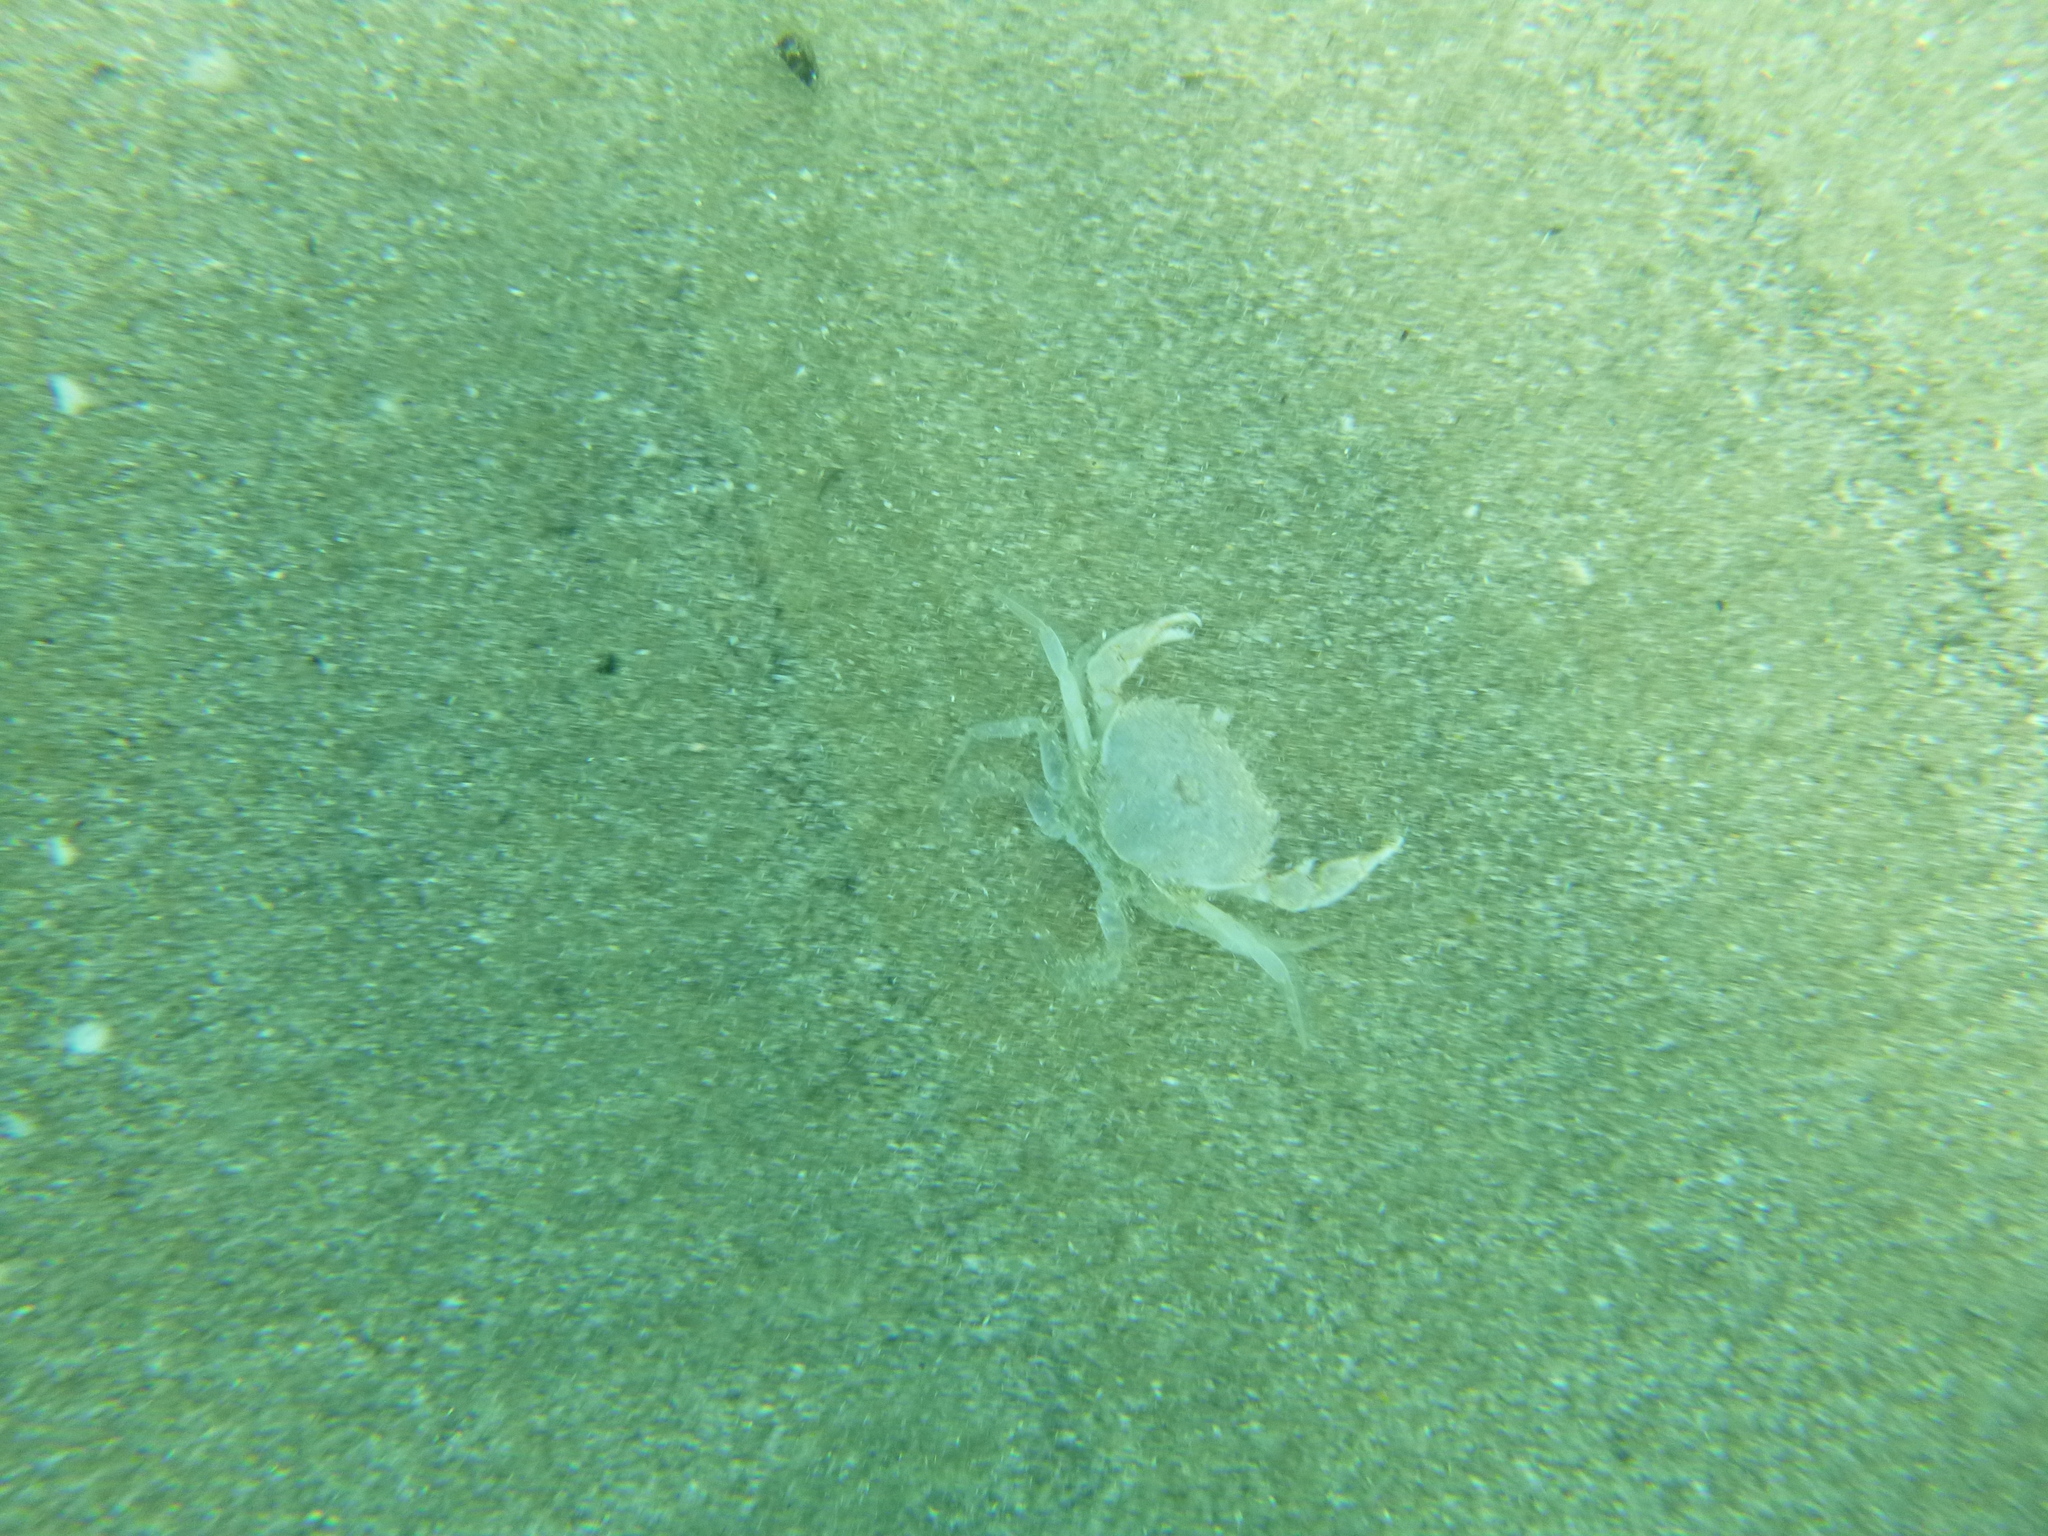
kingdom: Animalia
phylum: Arthropoda
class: Malacostraca
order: Decapoda
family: Ovalipidae
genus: Ovalipes
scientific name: Ovalipes catharus
